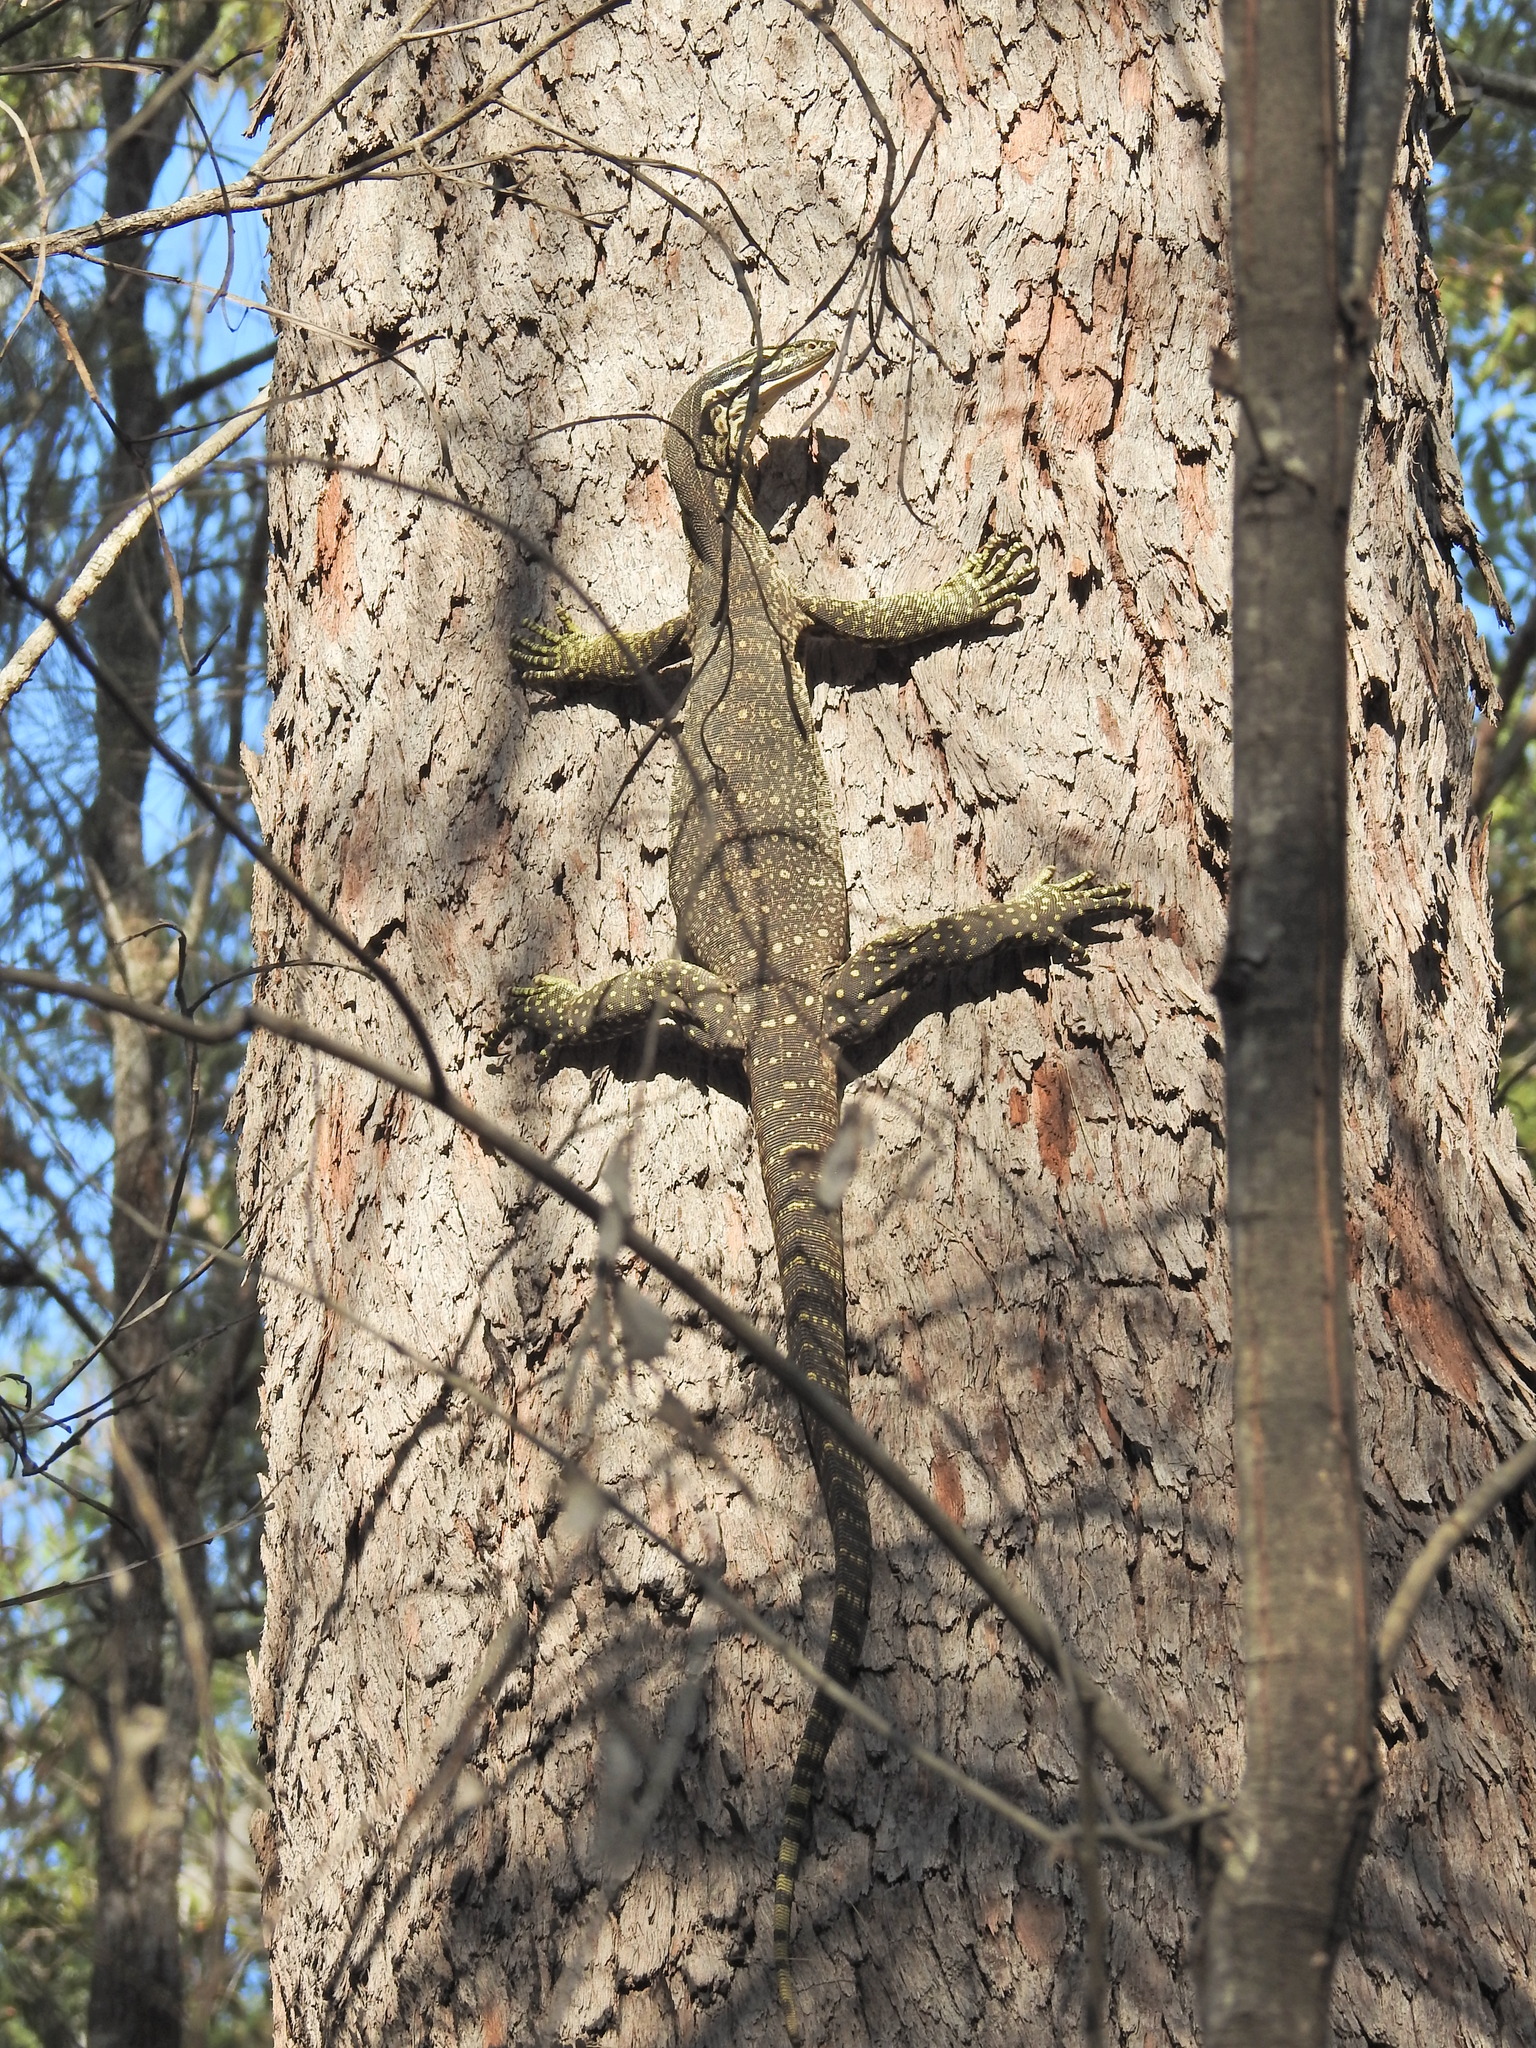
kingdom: Animalia
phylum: Chordata
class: Squamata
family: Varanidae
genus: Varanus
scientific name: Varanus panoptes
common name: Yellow-spotted monitor
